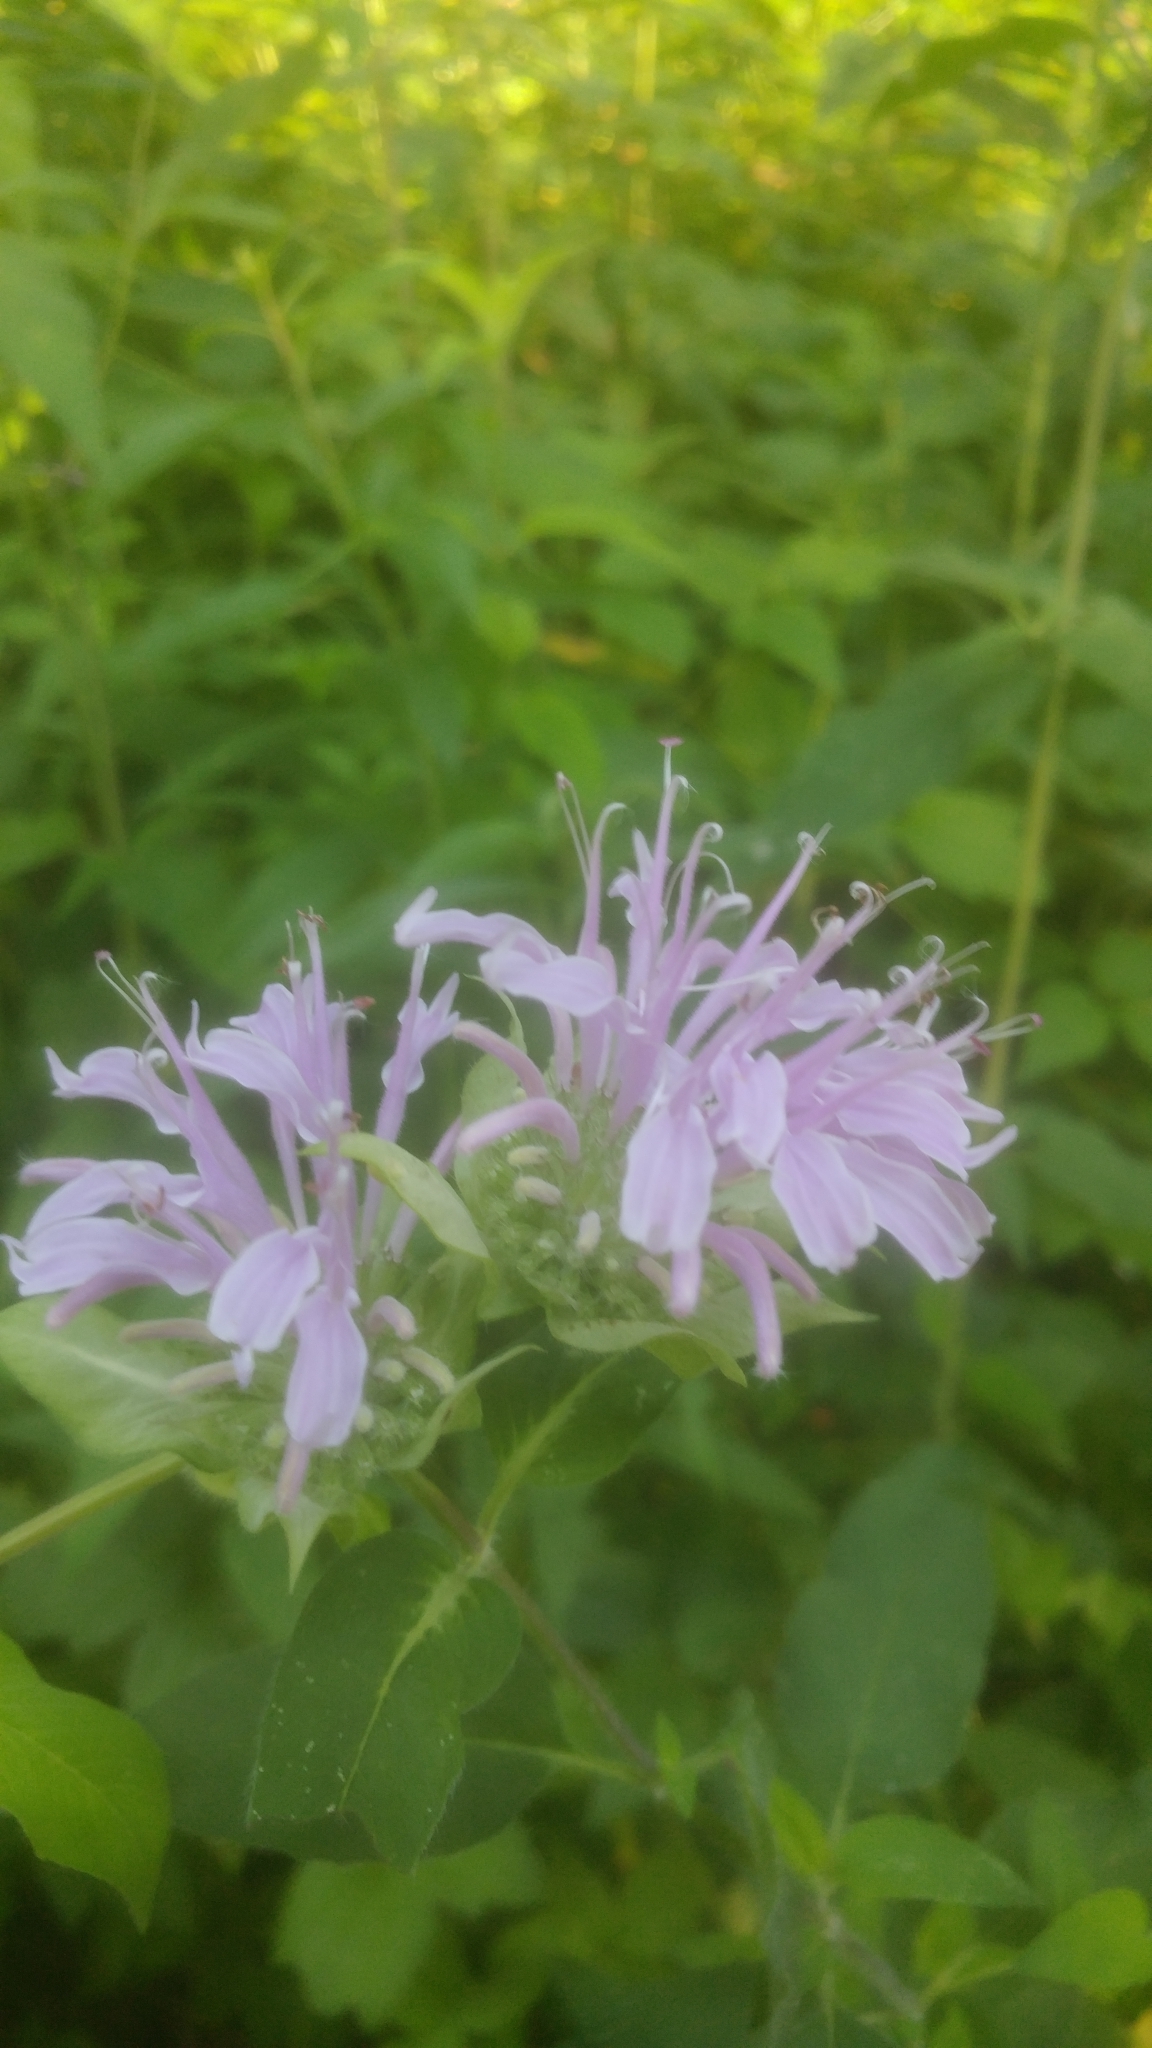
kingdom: Plantae
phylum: Tracheophyta
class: Magnoliopsida
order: Lamiales
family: Lamiaceae
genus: Monarda
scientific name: Monarda fistulosa
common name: Purple beebalm
